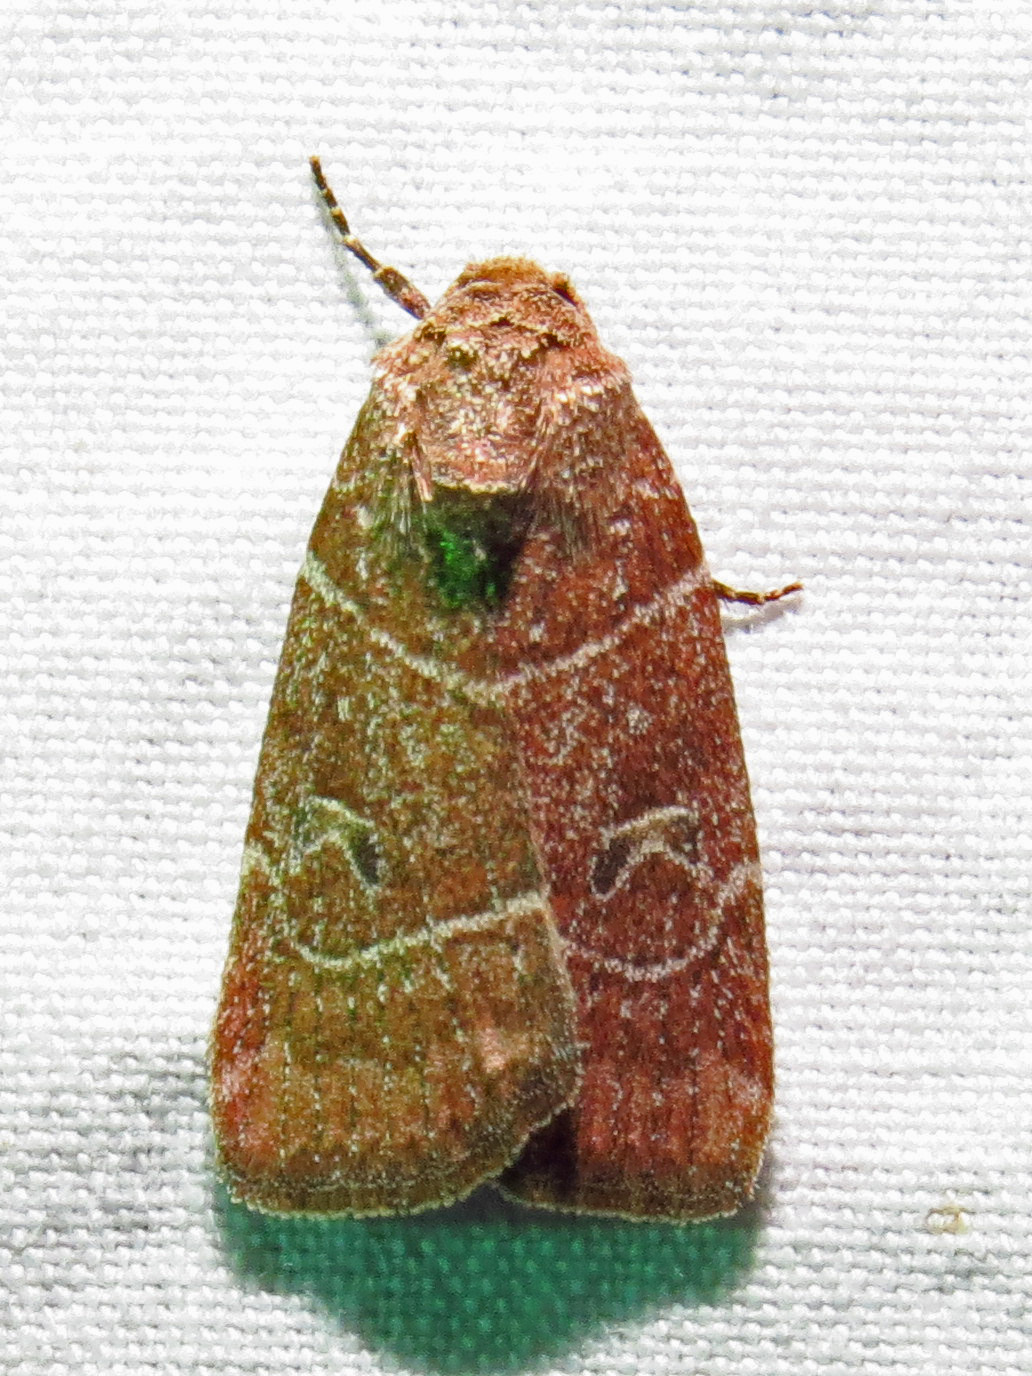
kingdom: Animalia
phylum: Arthropoda
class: Insecta
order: Lepidoptera
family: Noctuidae
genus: Elaphria
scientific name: Elaphria grata
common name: Grateful midget moth
